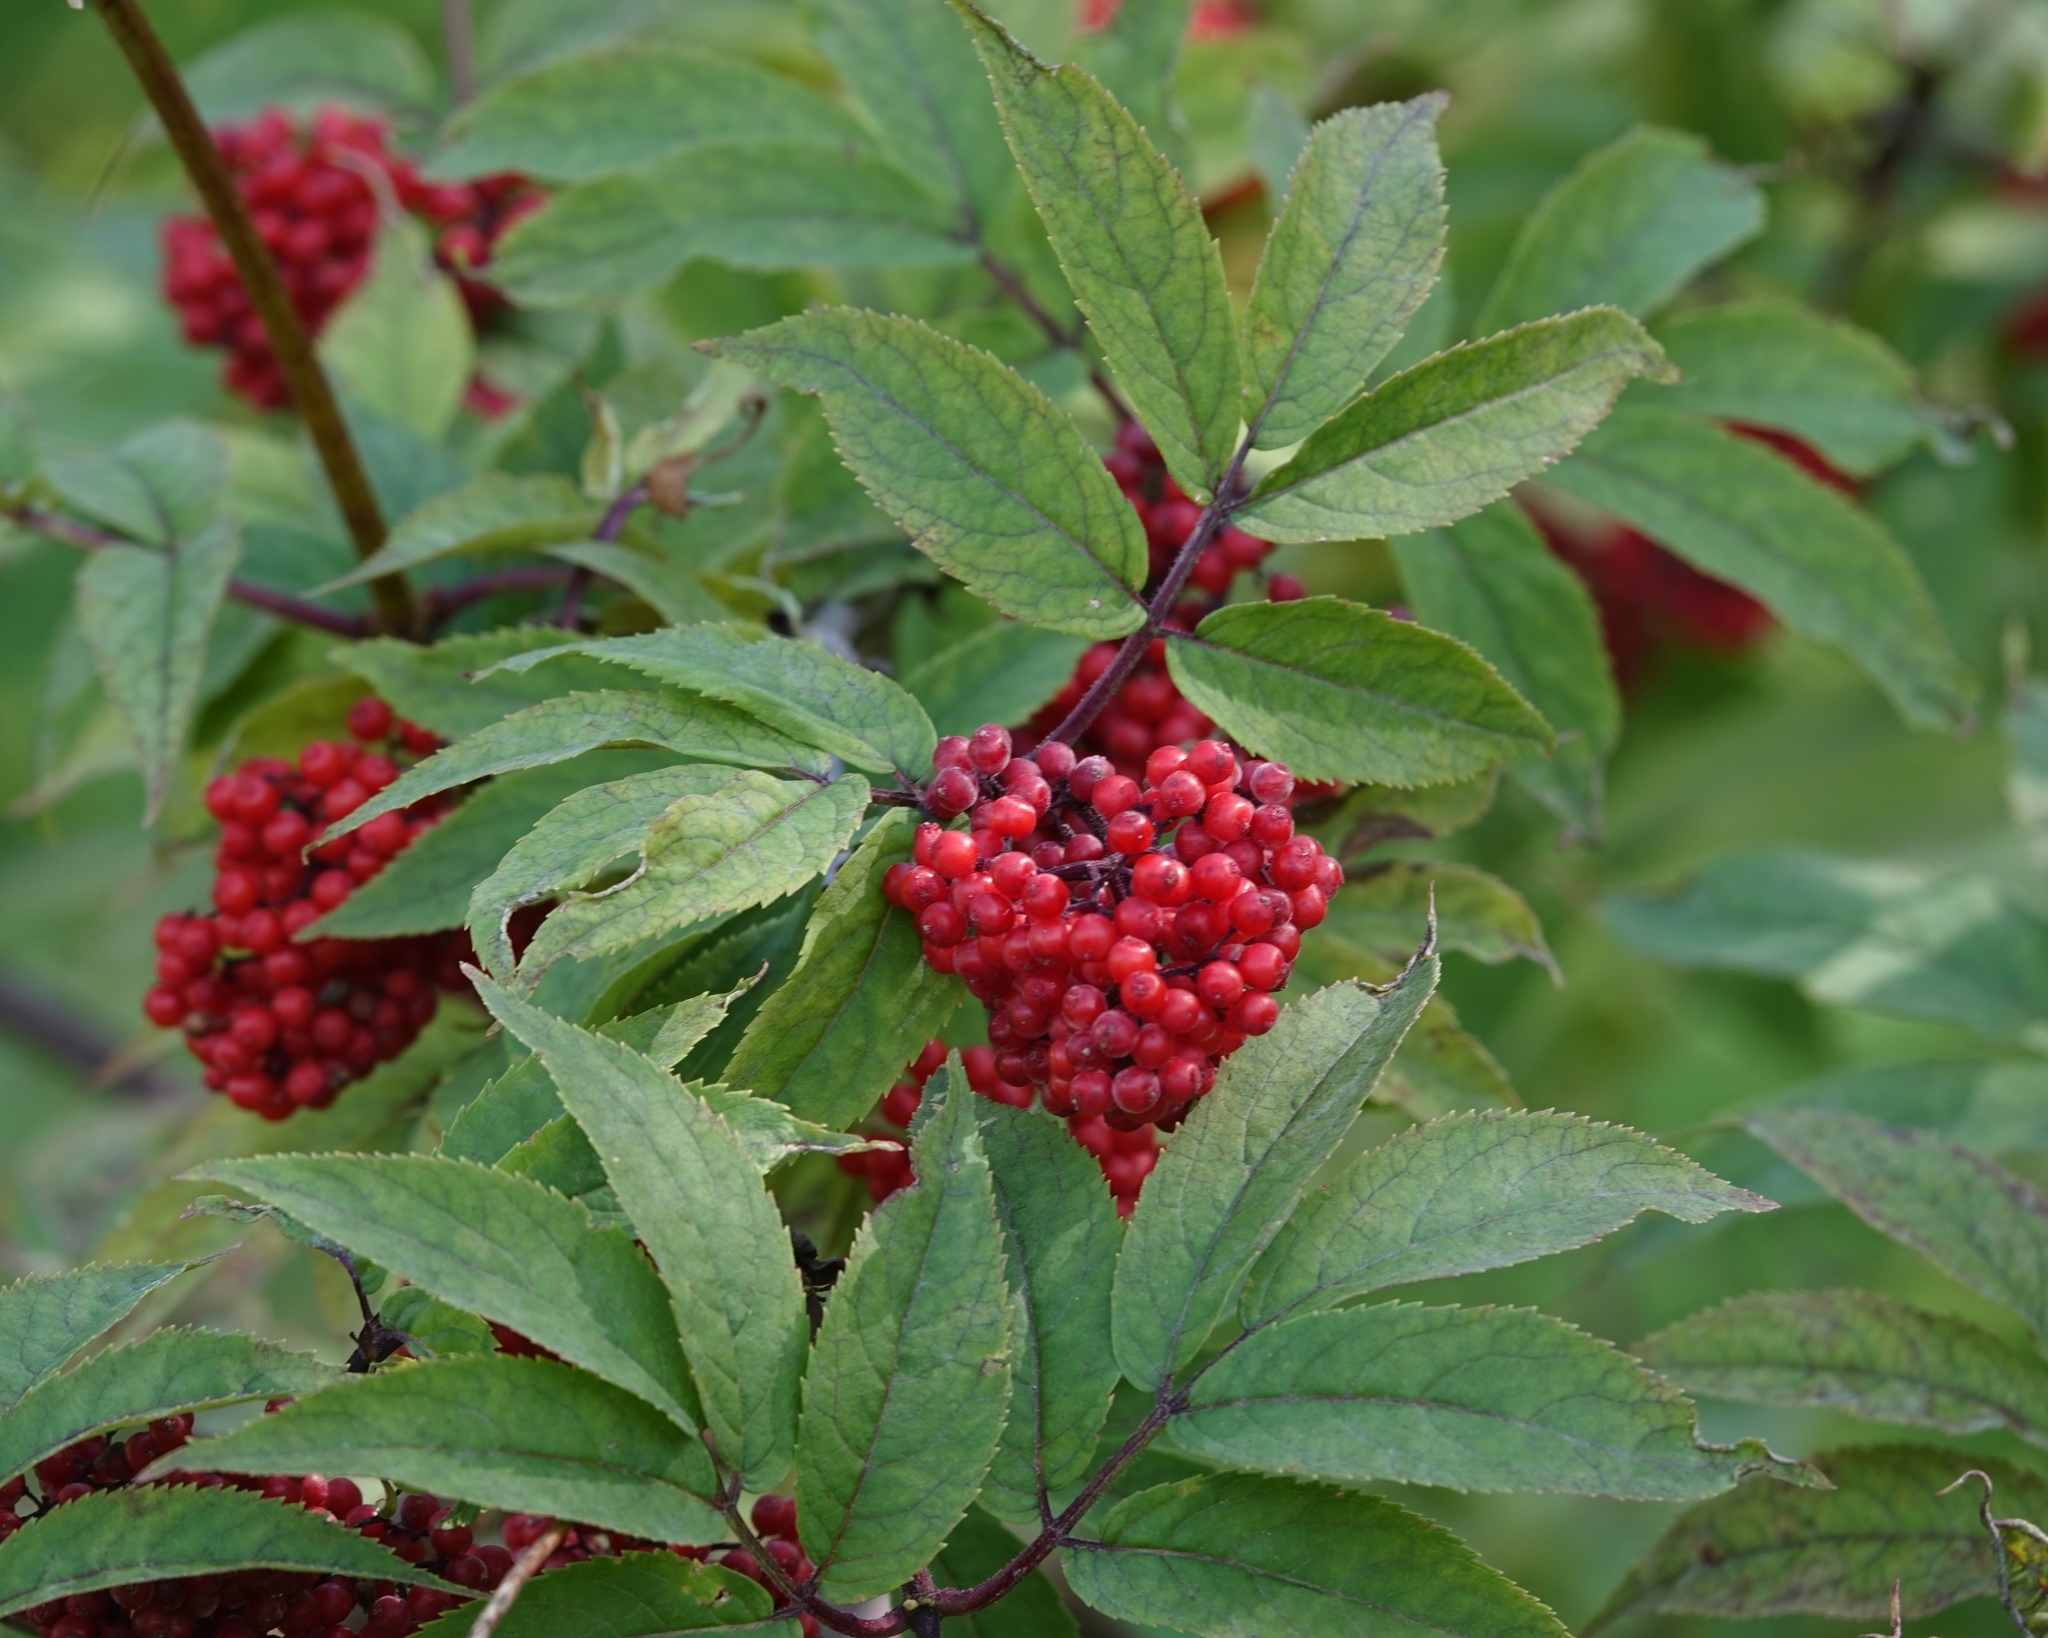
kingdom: Plantae
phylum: Tracheophyta
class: Magnoliopsida
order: Dipsacales
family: Viburnaceae
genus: Sambucus
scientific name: Sambucus racemosa
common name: Red-berried elder
